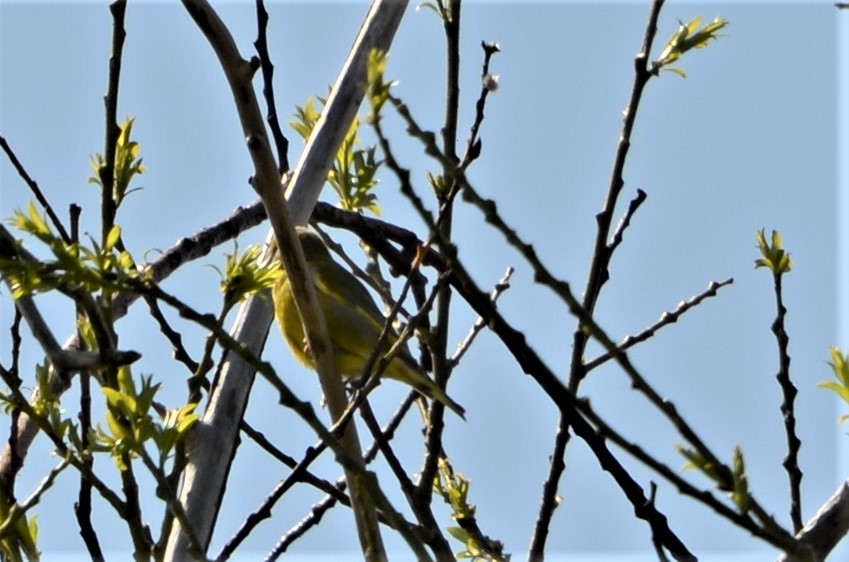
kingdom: Plantae
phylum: Tracheophyta
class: Liliopsida
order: Poales
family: Poaceae
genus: Chloris
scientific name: Chloris chloris
